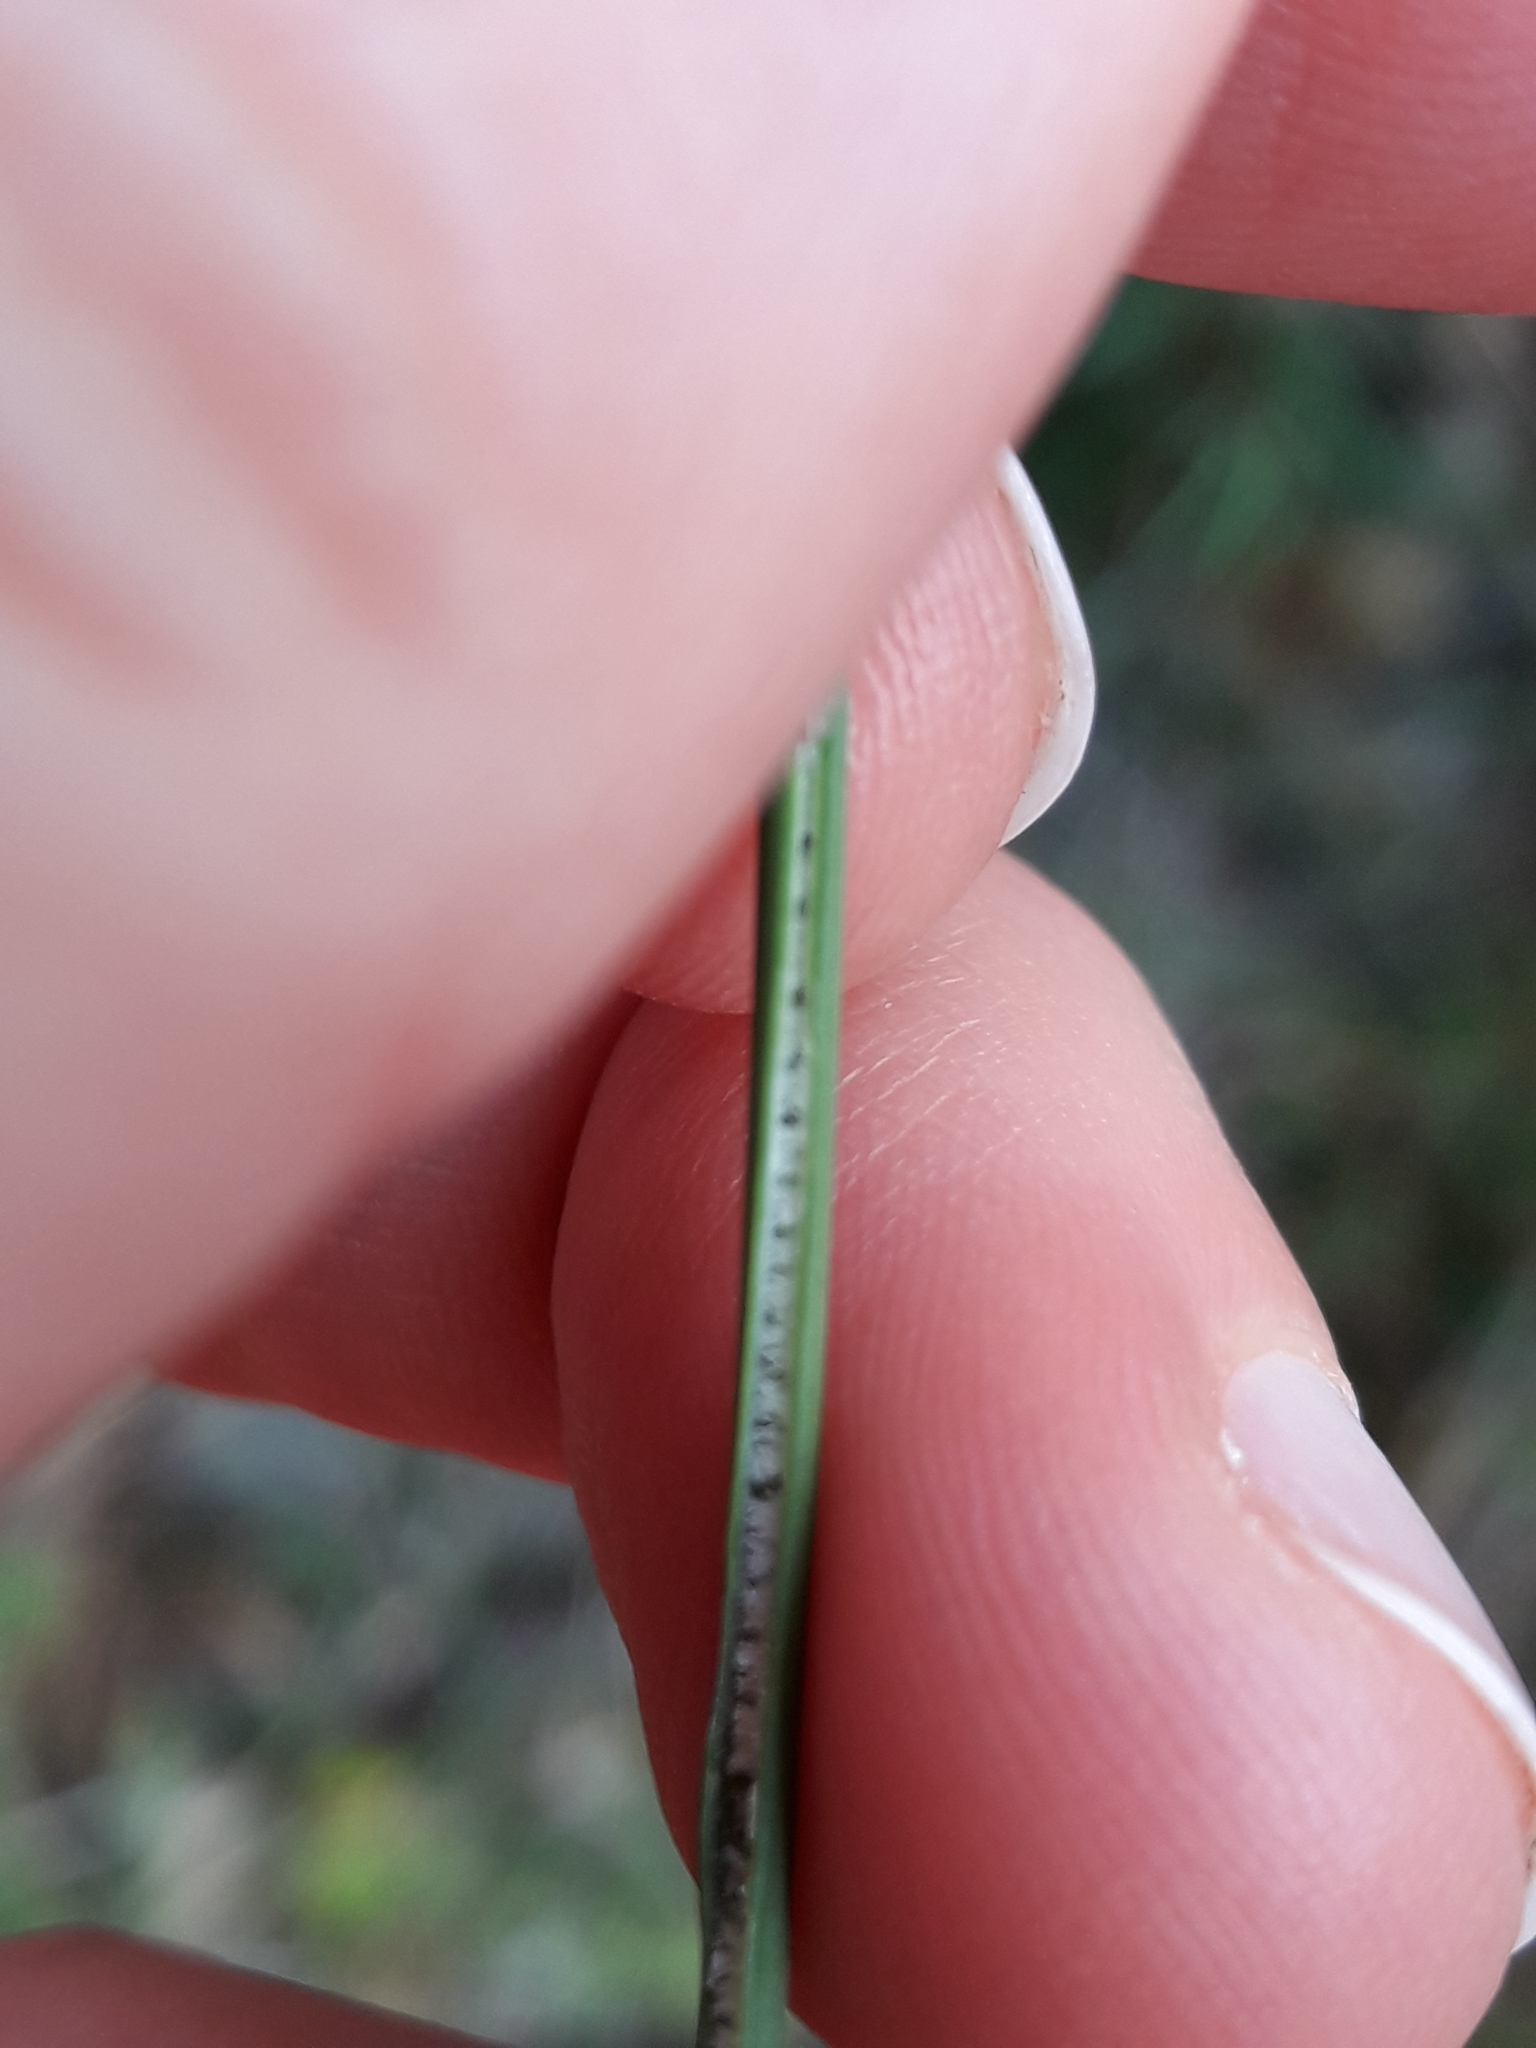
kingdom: Plantae
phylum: Tracheophyta
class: Liliopsida
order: Poales
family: Juncaceae
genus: Juncus
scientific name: Juncus sarophorus
